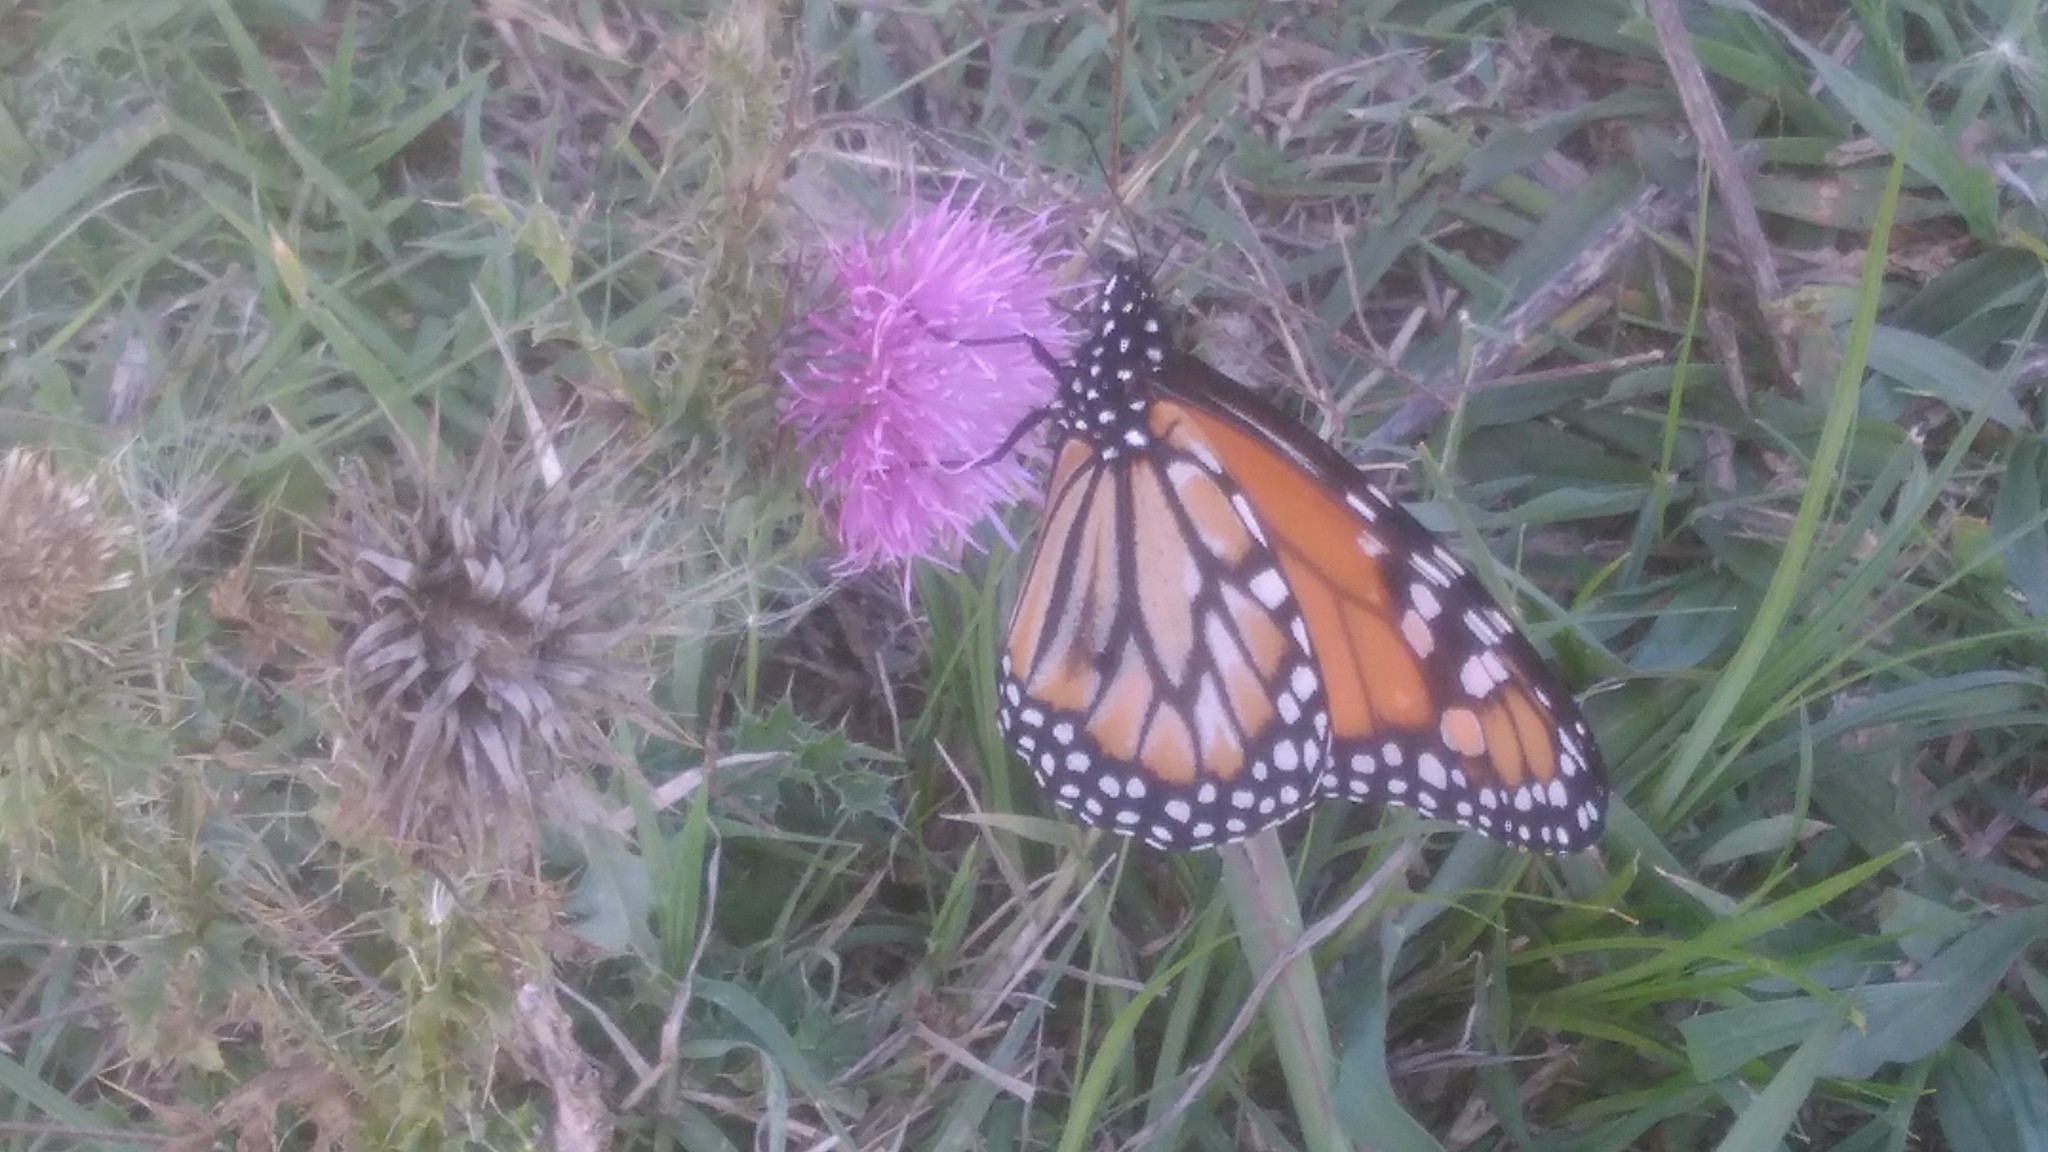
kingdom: Animalia
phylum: Arthropoda
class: Insecta
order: Lepidoptera
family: Nymphalidae
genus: Danaus
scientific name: Danaus erippus
